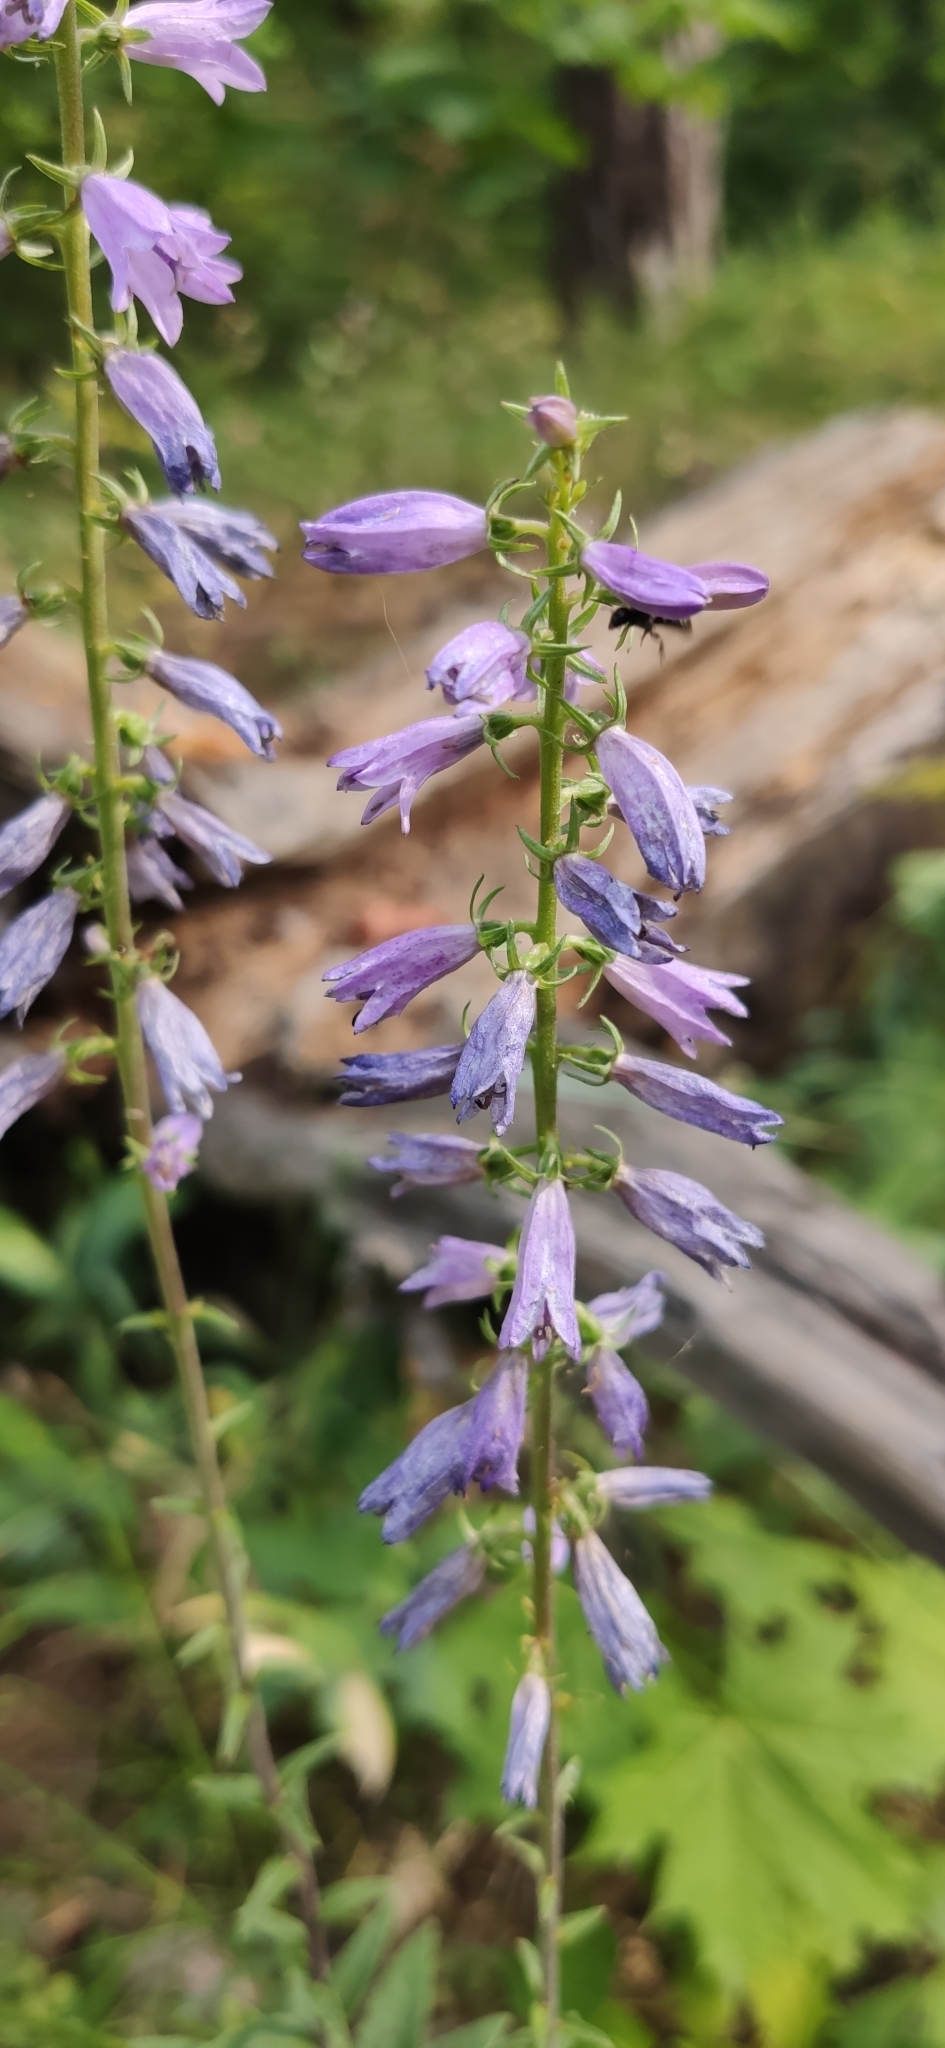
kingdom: Plantae
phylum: Tracheophyta
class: Magnoliopsida
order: Asterales
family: Campanulaceae
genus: Campanula
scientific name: Campanula bononiensis
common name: Pale bellflower
